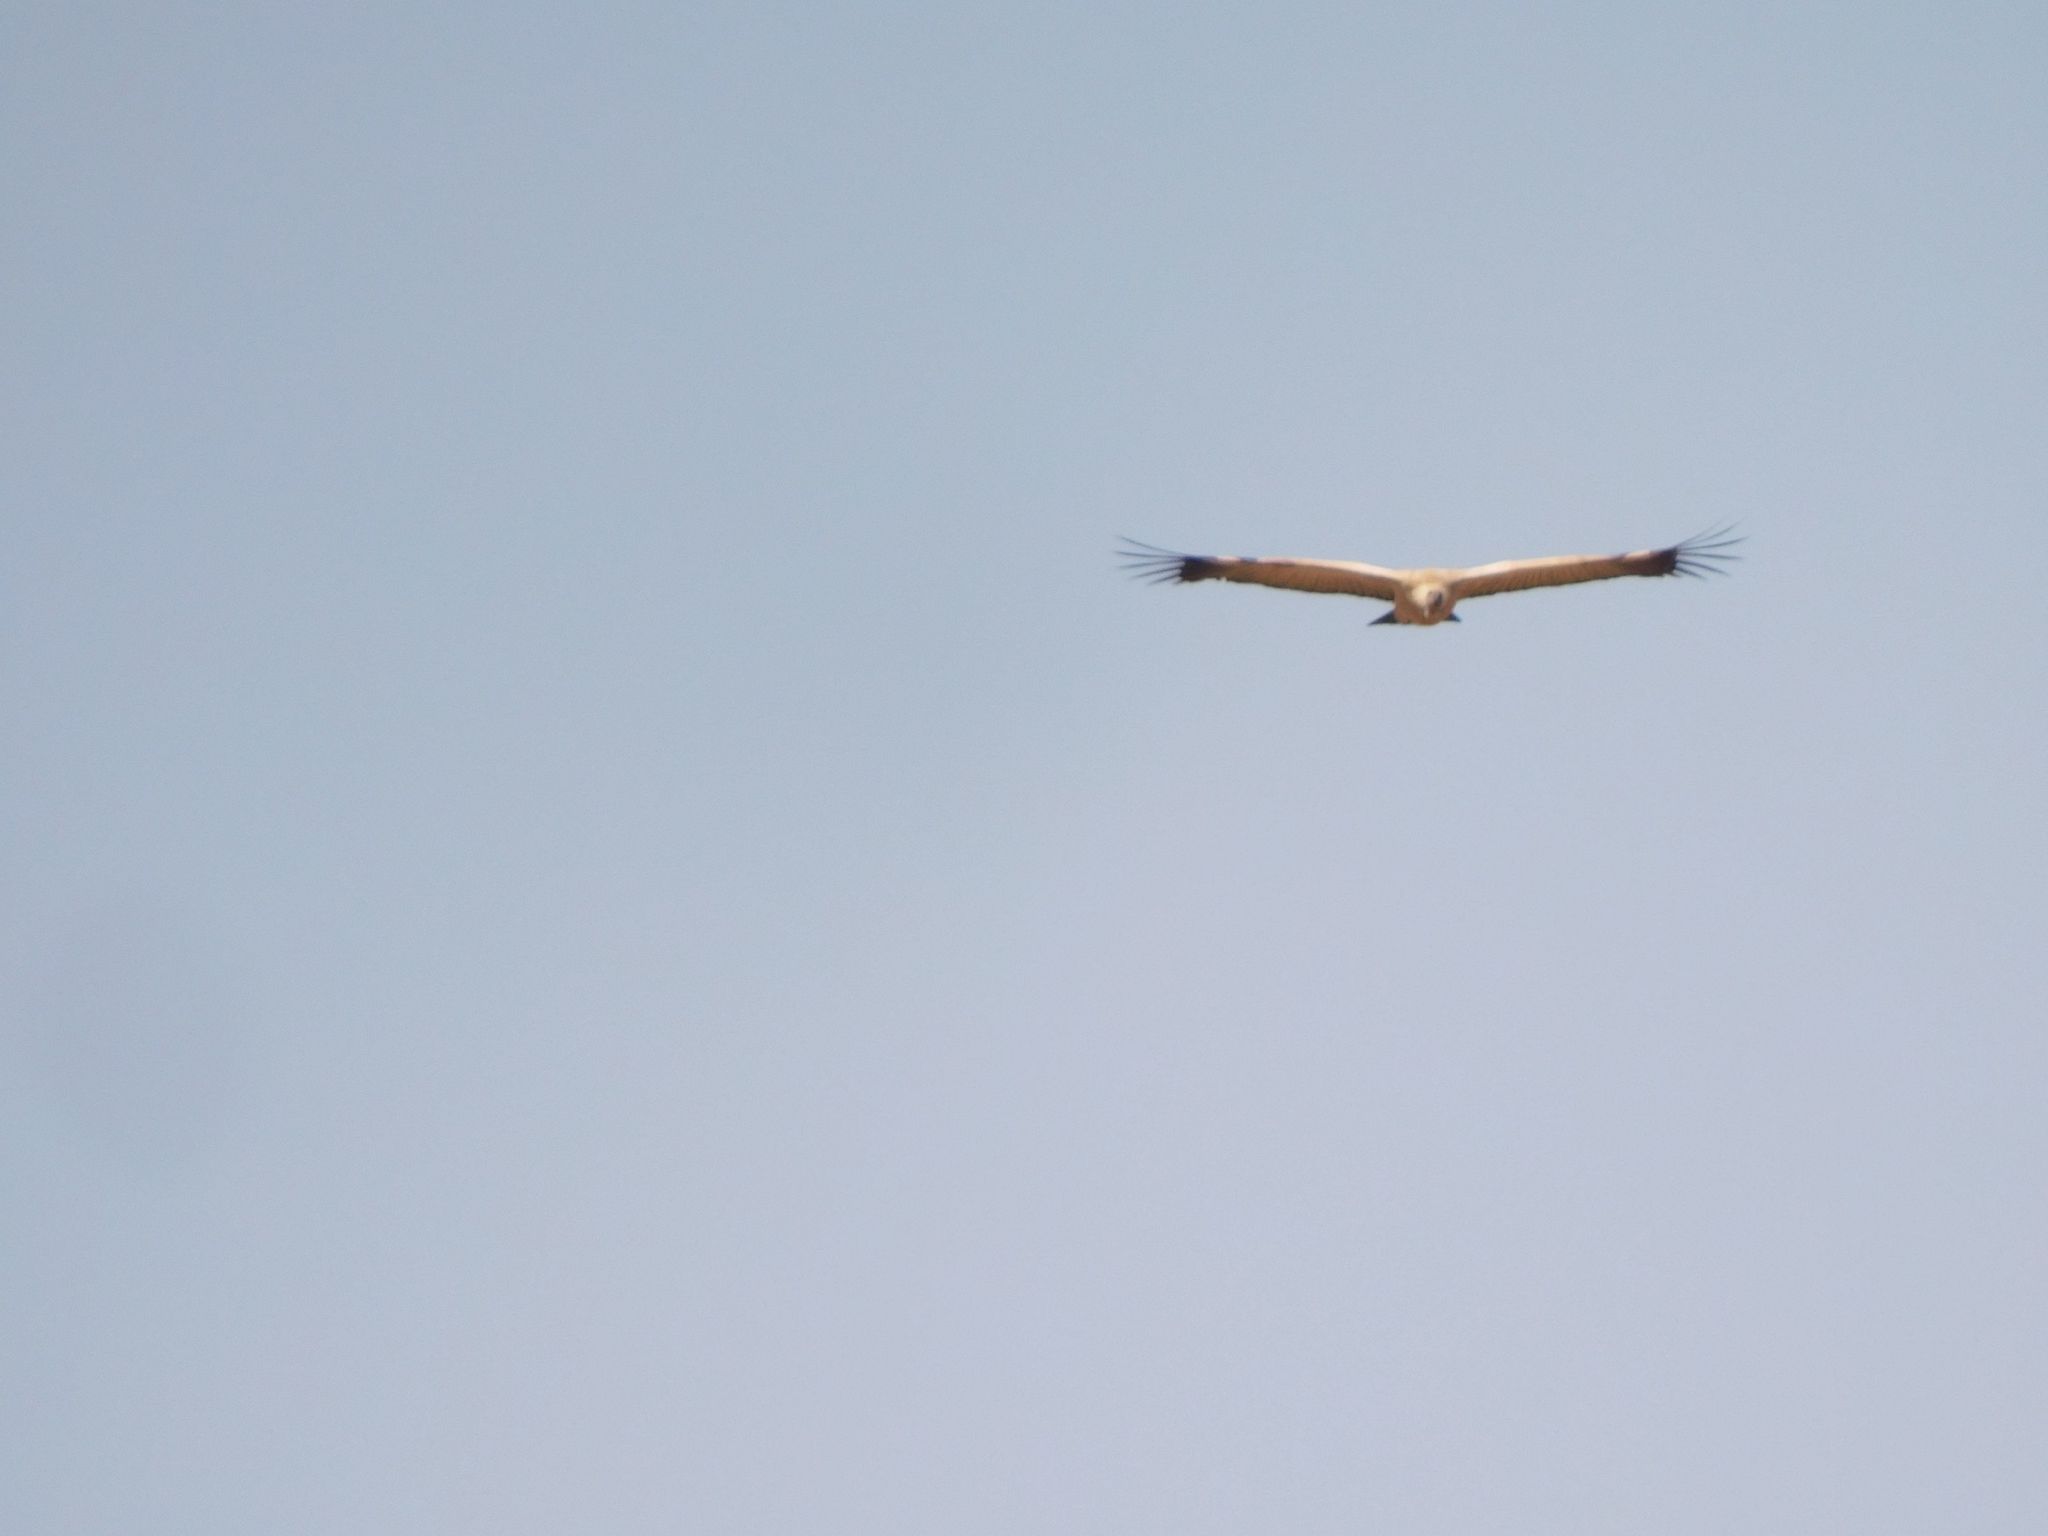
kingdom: Animalia
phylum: Chordata
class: Aves
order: Accipitriformes
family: Accipitridae
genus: Gyps
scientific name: Gyps coprotheres
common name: Cape vulture
